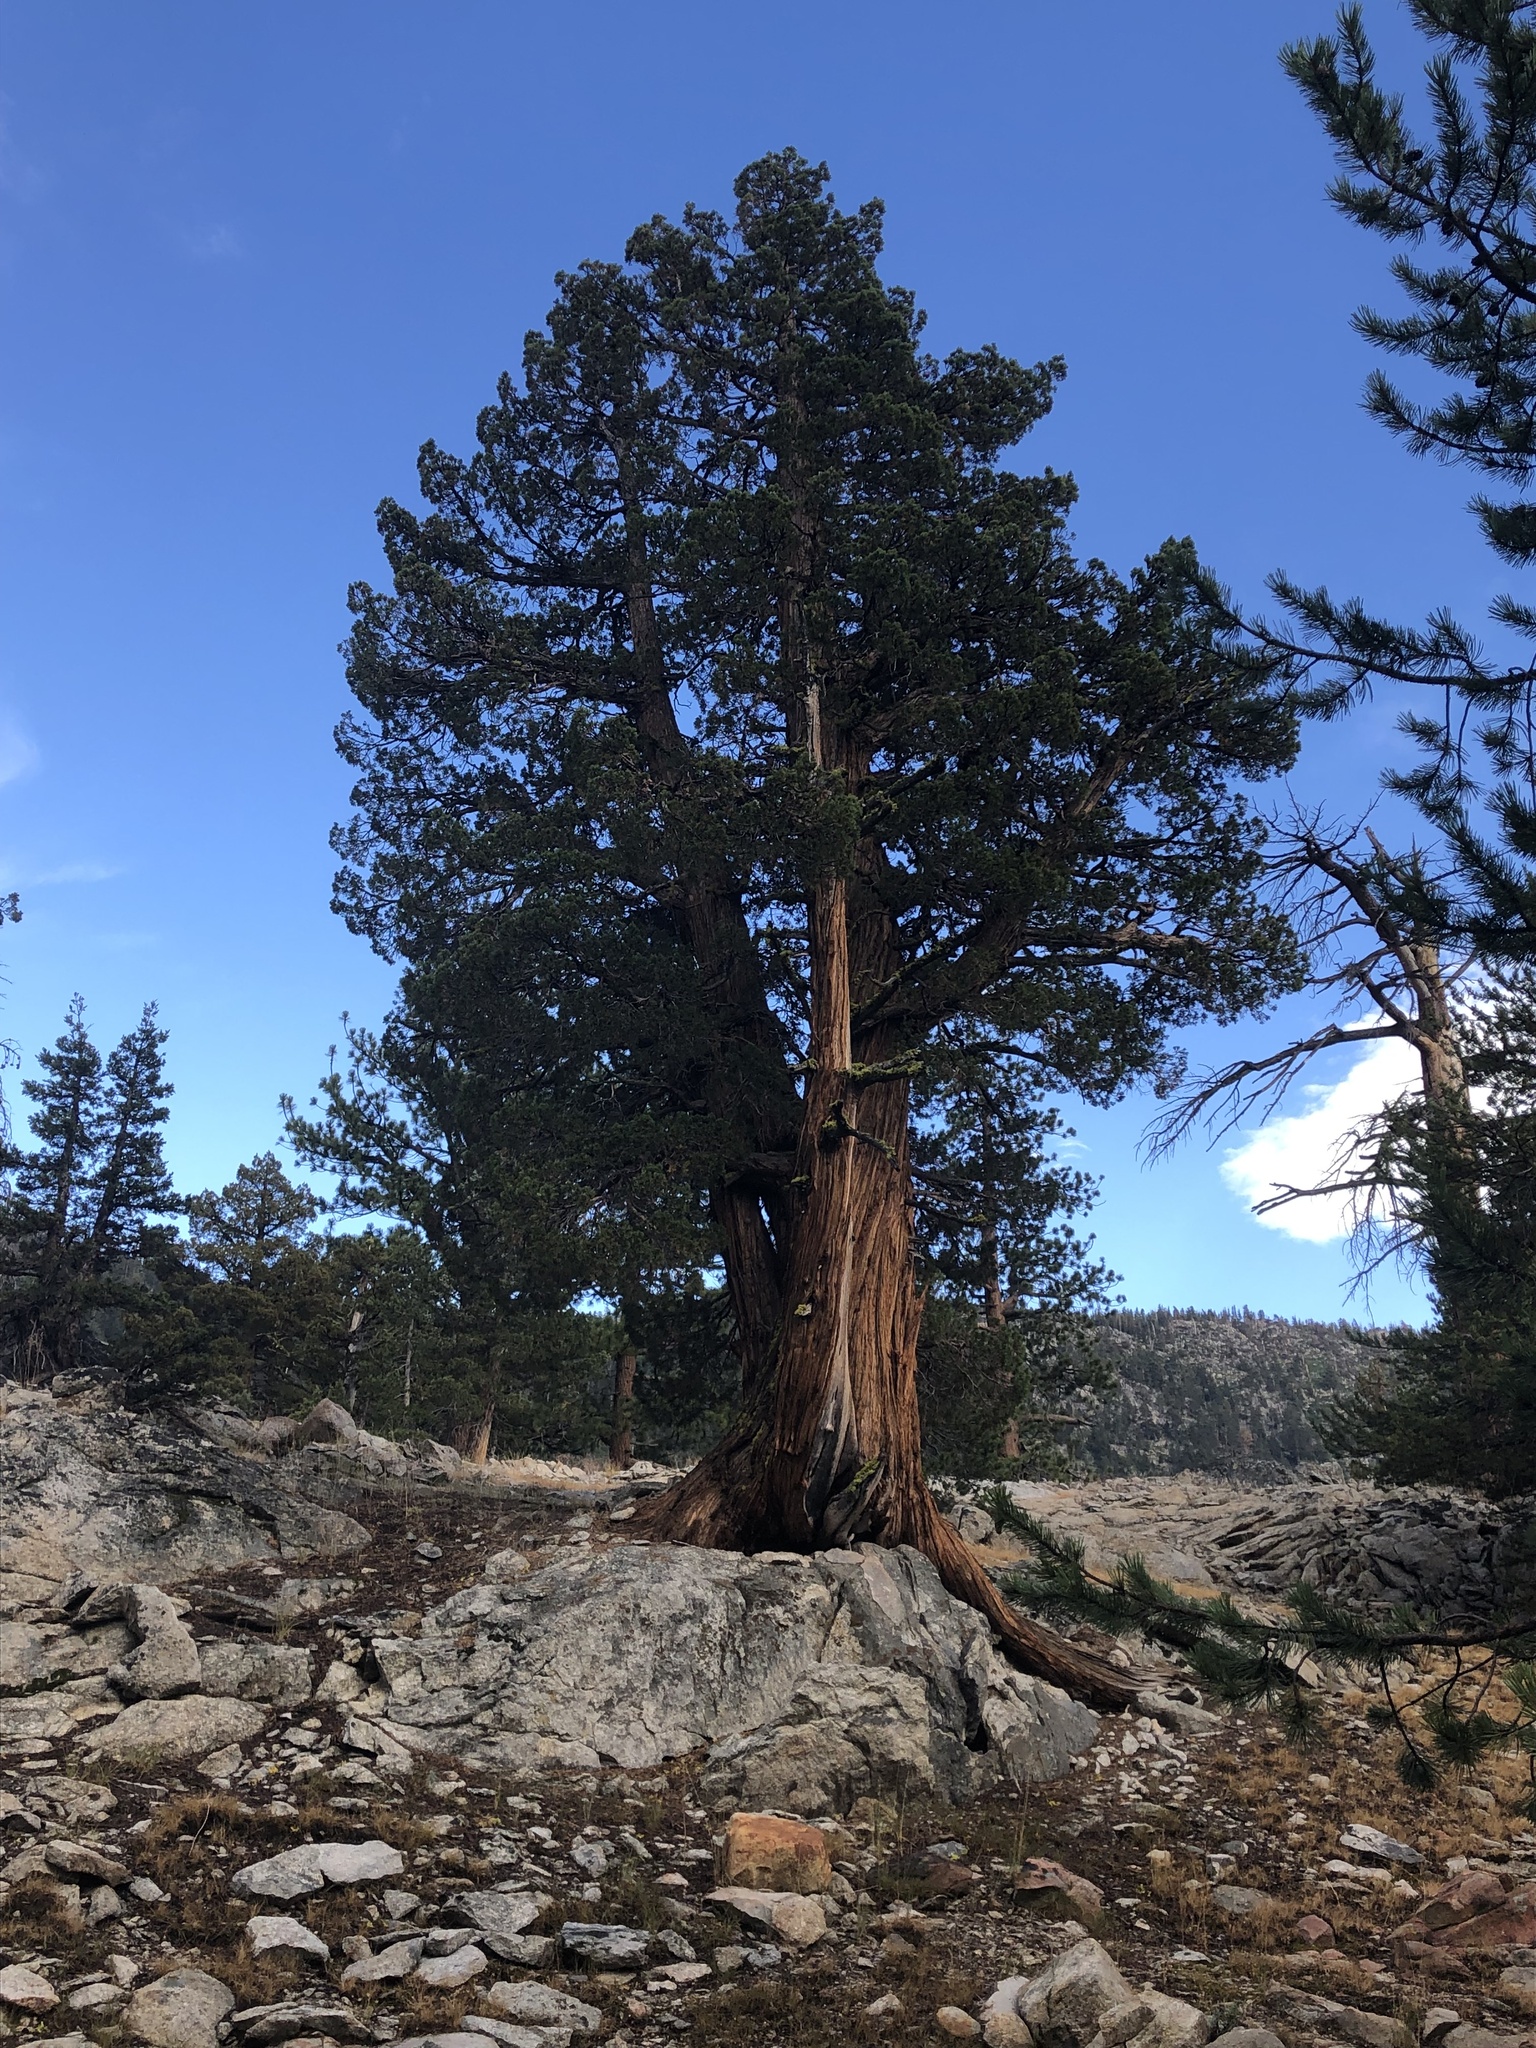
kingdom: Plantae
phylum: Tracheophyta
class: Pinopsida
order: Pinales
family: Cupressaceae
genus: Juniperus
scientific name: Juniperus occidentalis
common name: Western juniper
